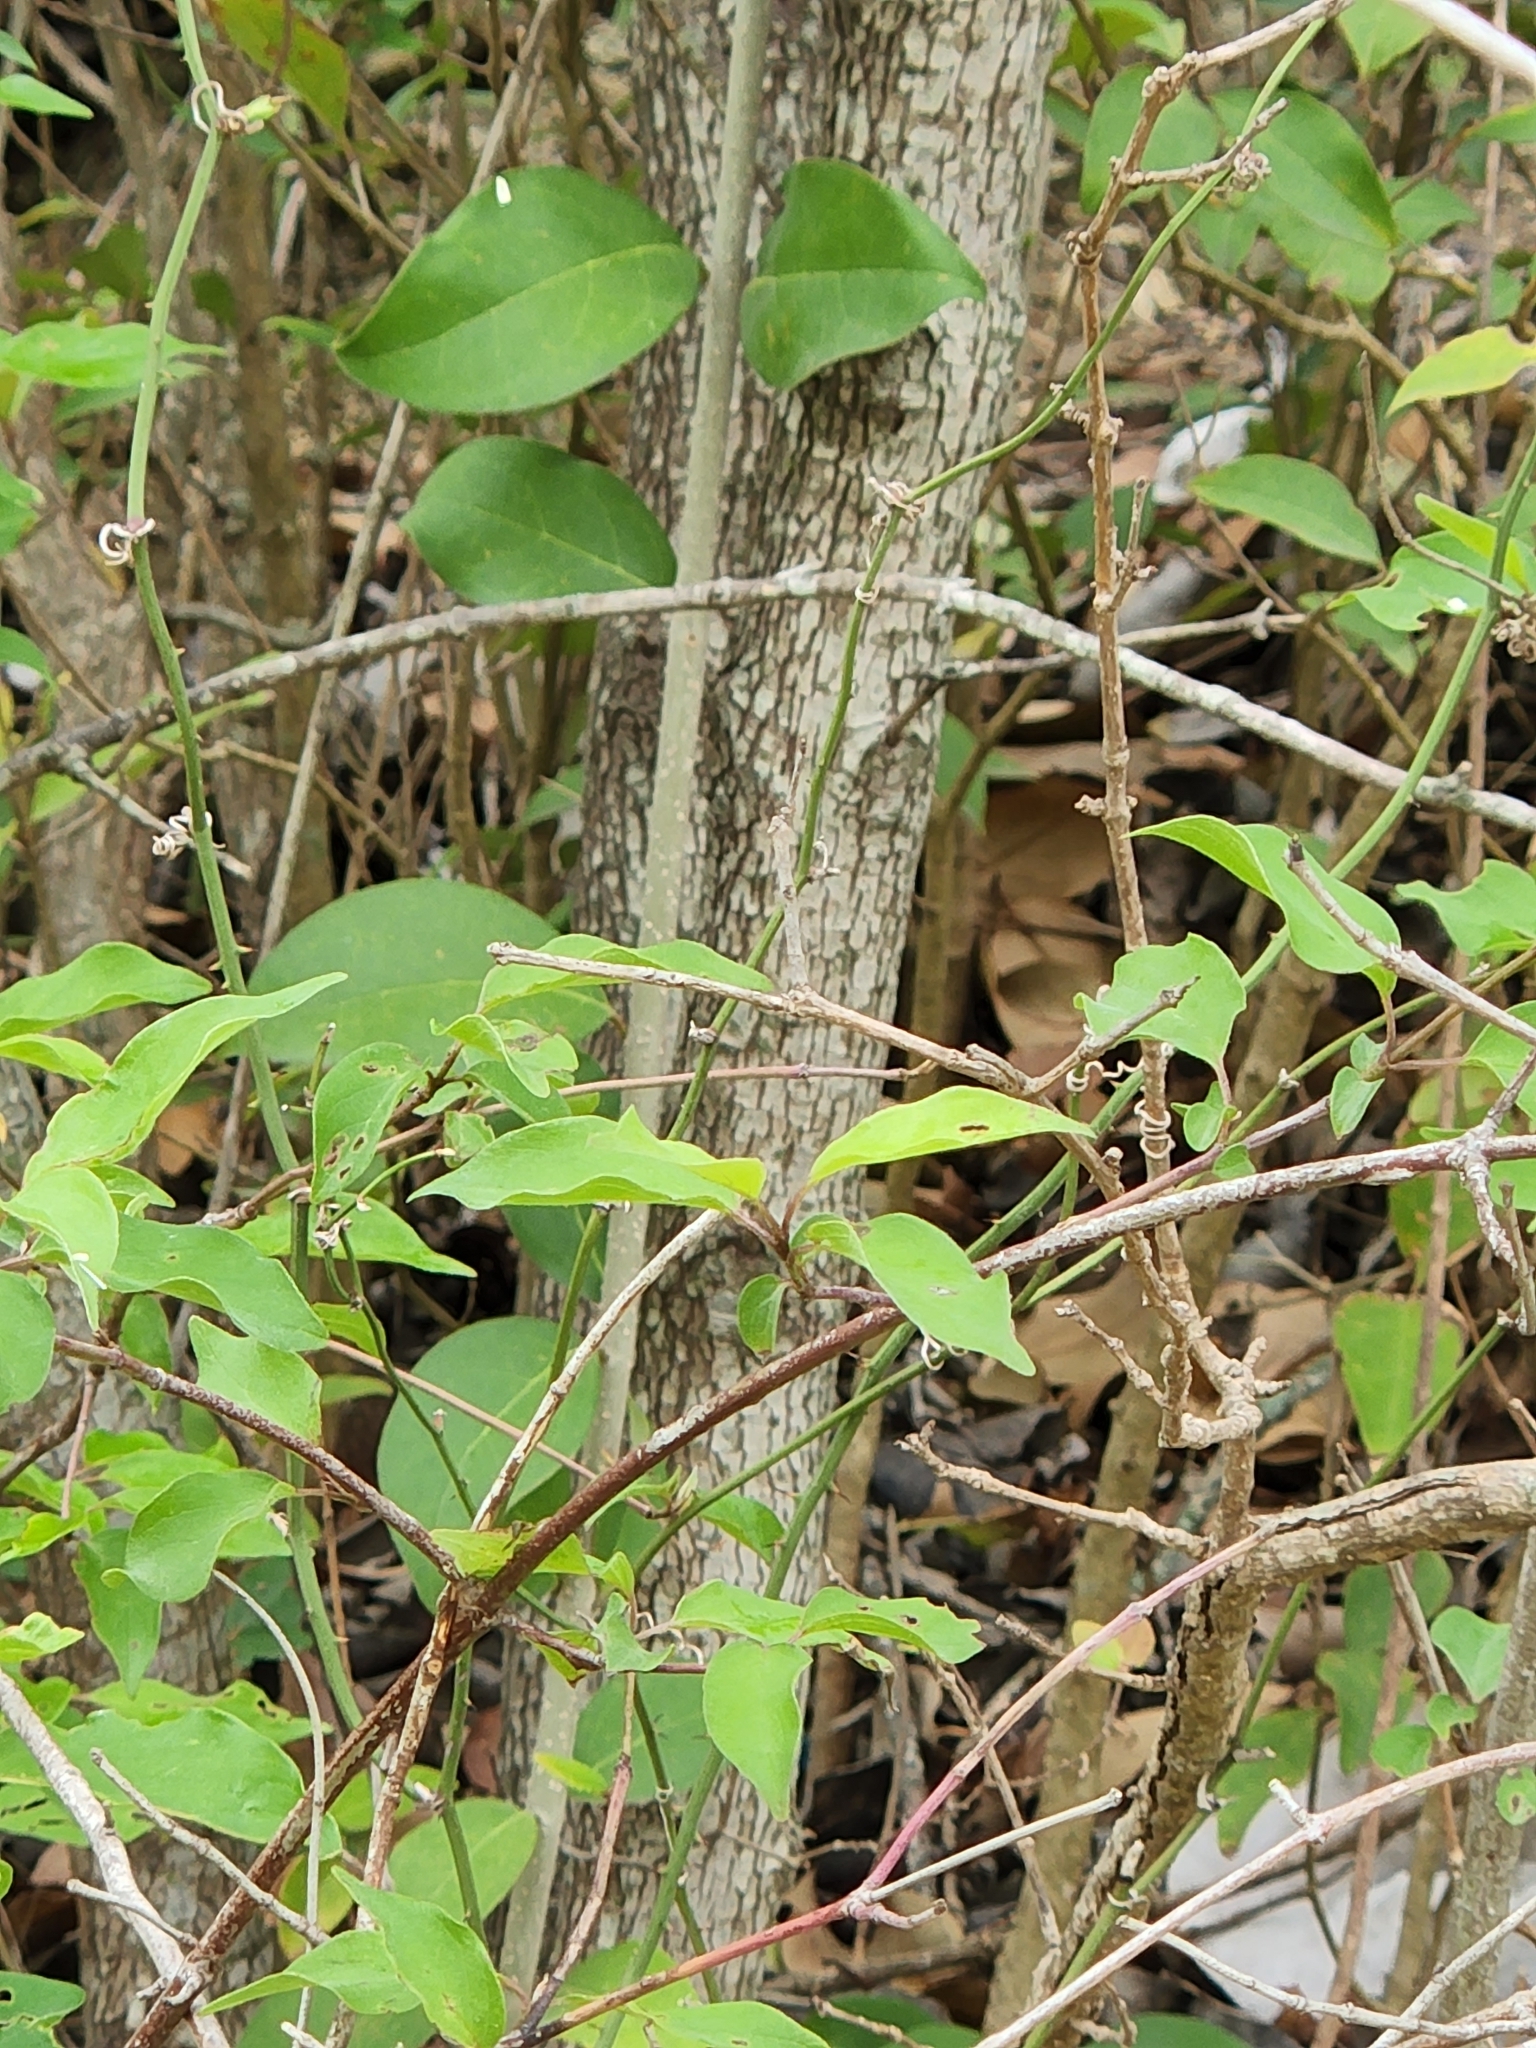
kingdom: Plantae
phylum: Tracheophyta
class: Magnoliopsida
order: Cornales
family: Cornaceae
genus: Cornus
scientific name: Cornus drummondii
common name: Rough-leaf dogwood
